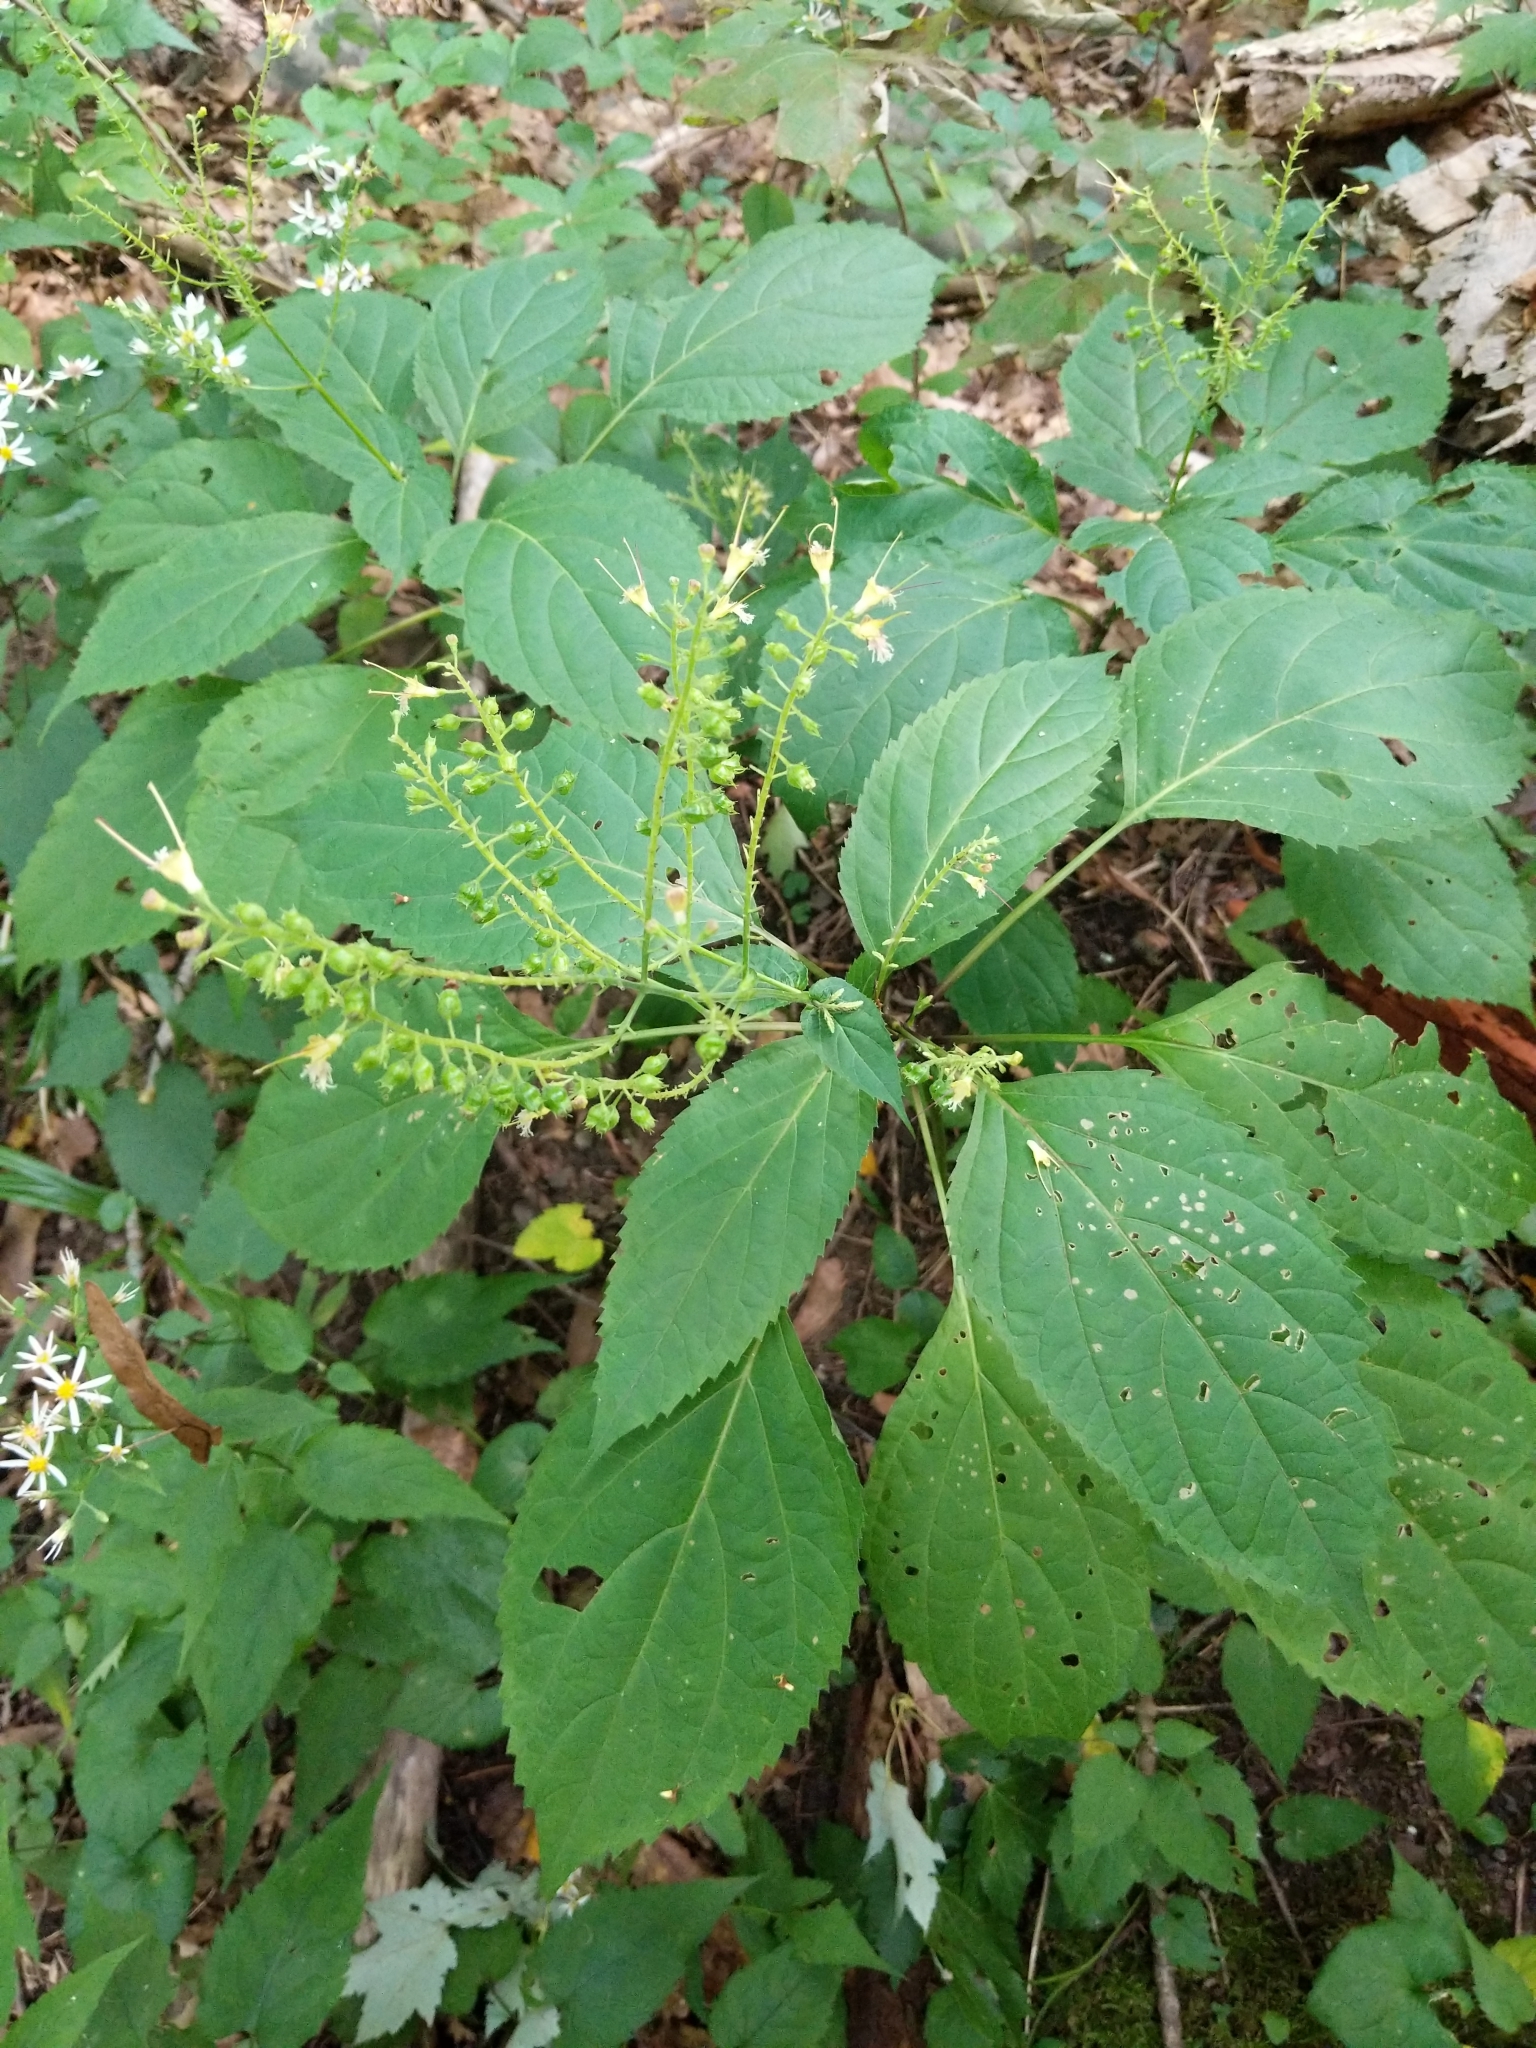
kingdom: Plantae
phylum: Tracheophyta
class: Magnoliopsida
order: Lamiales
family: Lamiaceae
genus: Collinsonia
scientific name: Collinsonia canadensis
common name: Northern horsebalm
